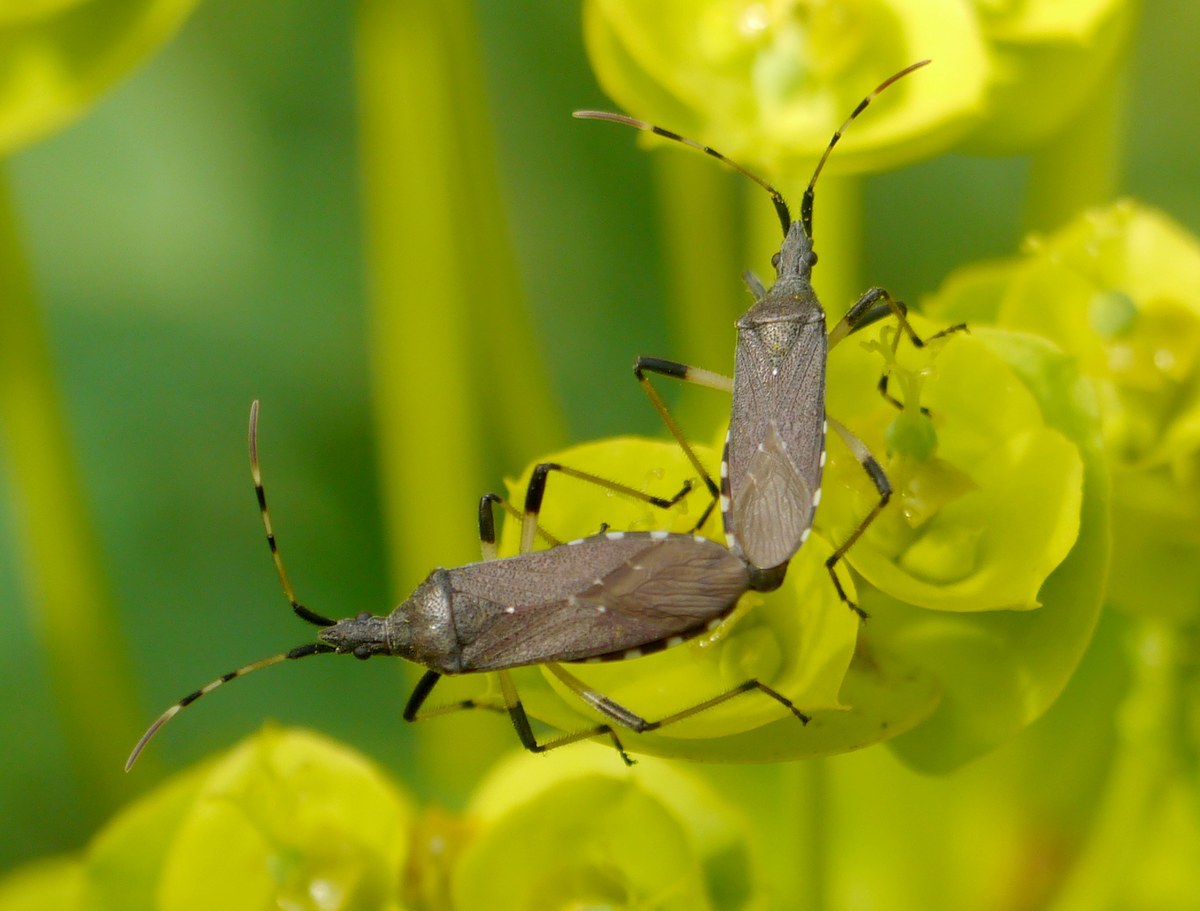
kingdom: Animalia
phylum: Arthropoda
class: Insecta
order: Hemiptera
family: Stenocephalidae
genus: Dicranocephalus
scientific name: Dicranocephalus albipes
